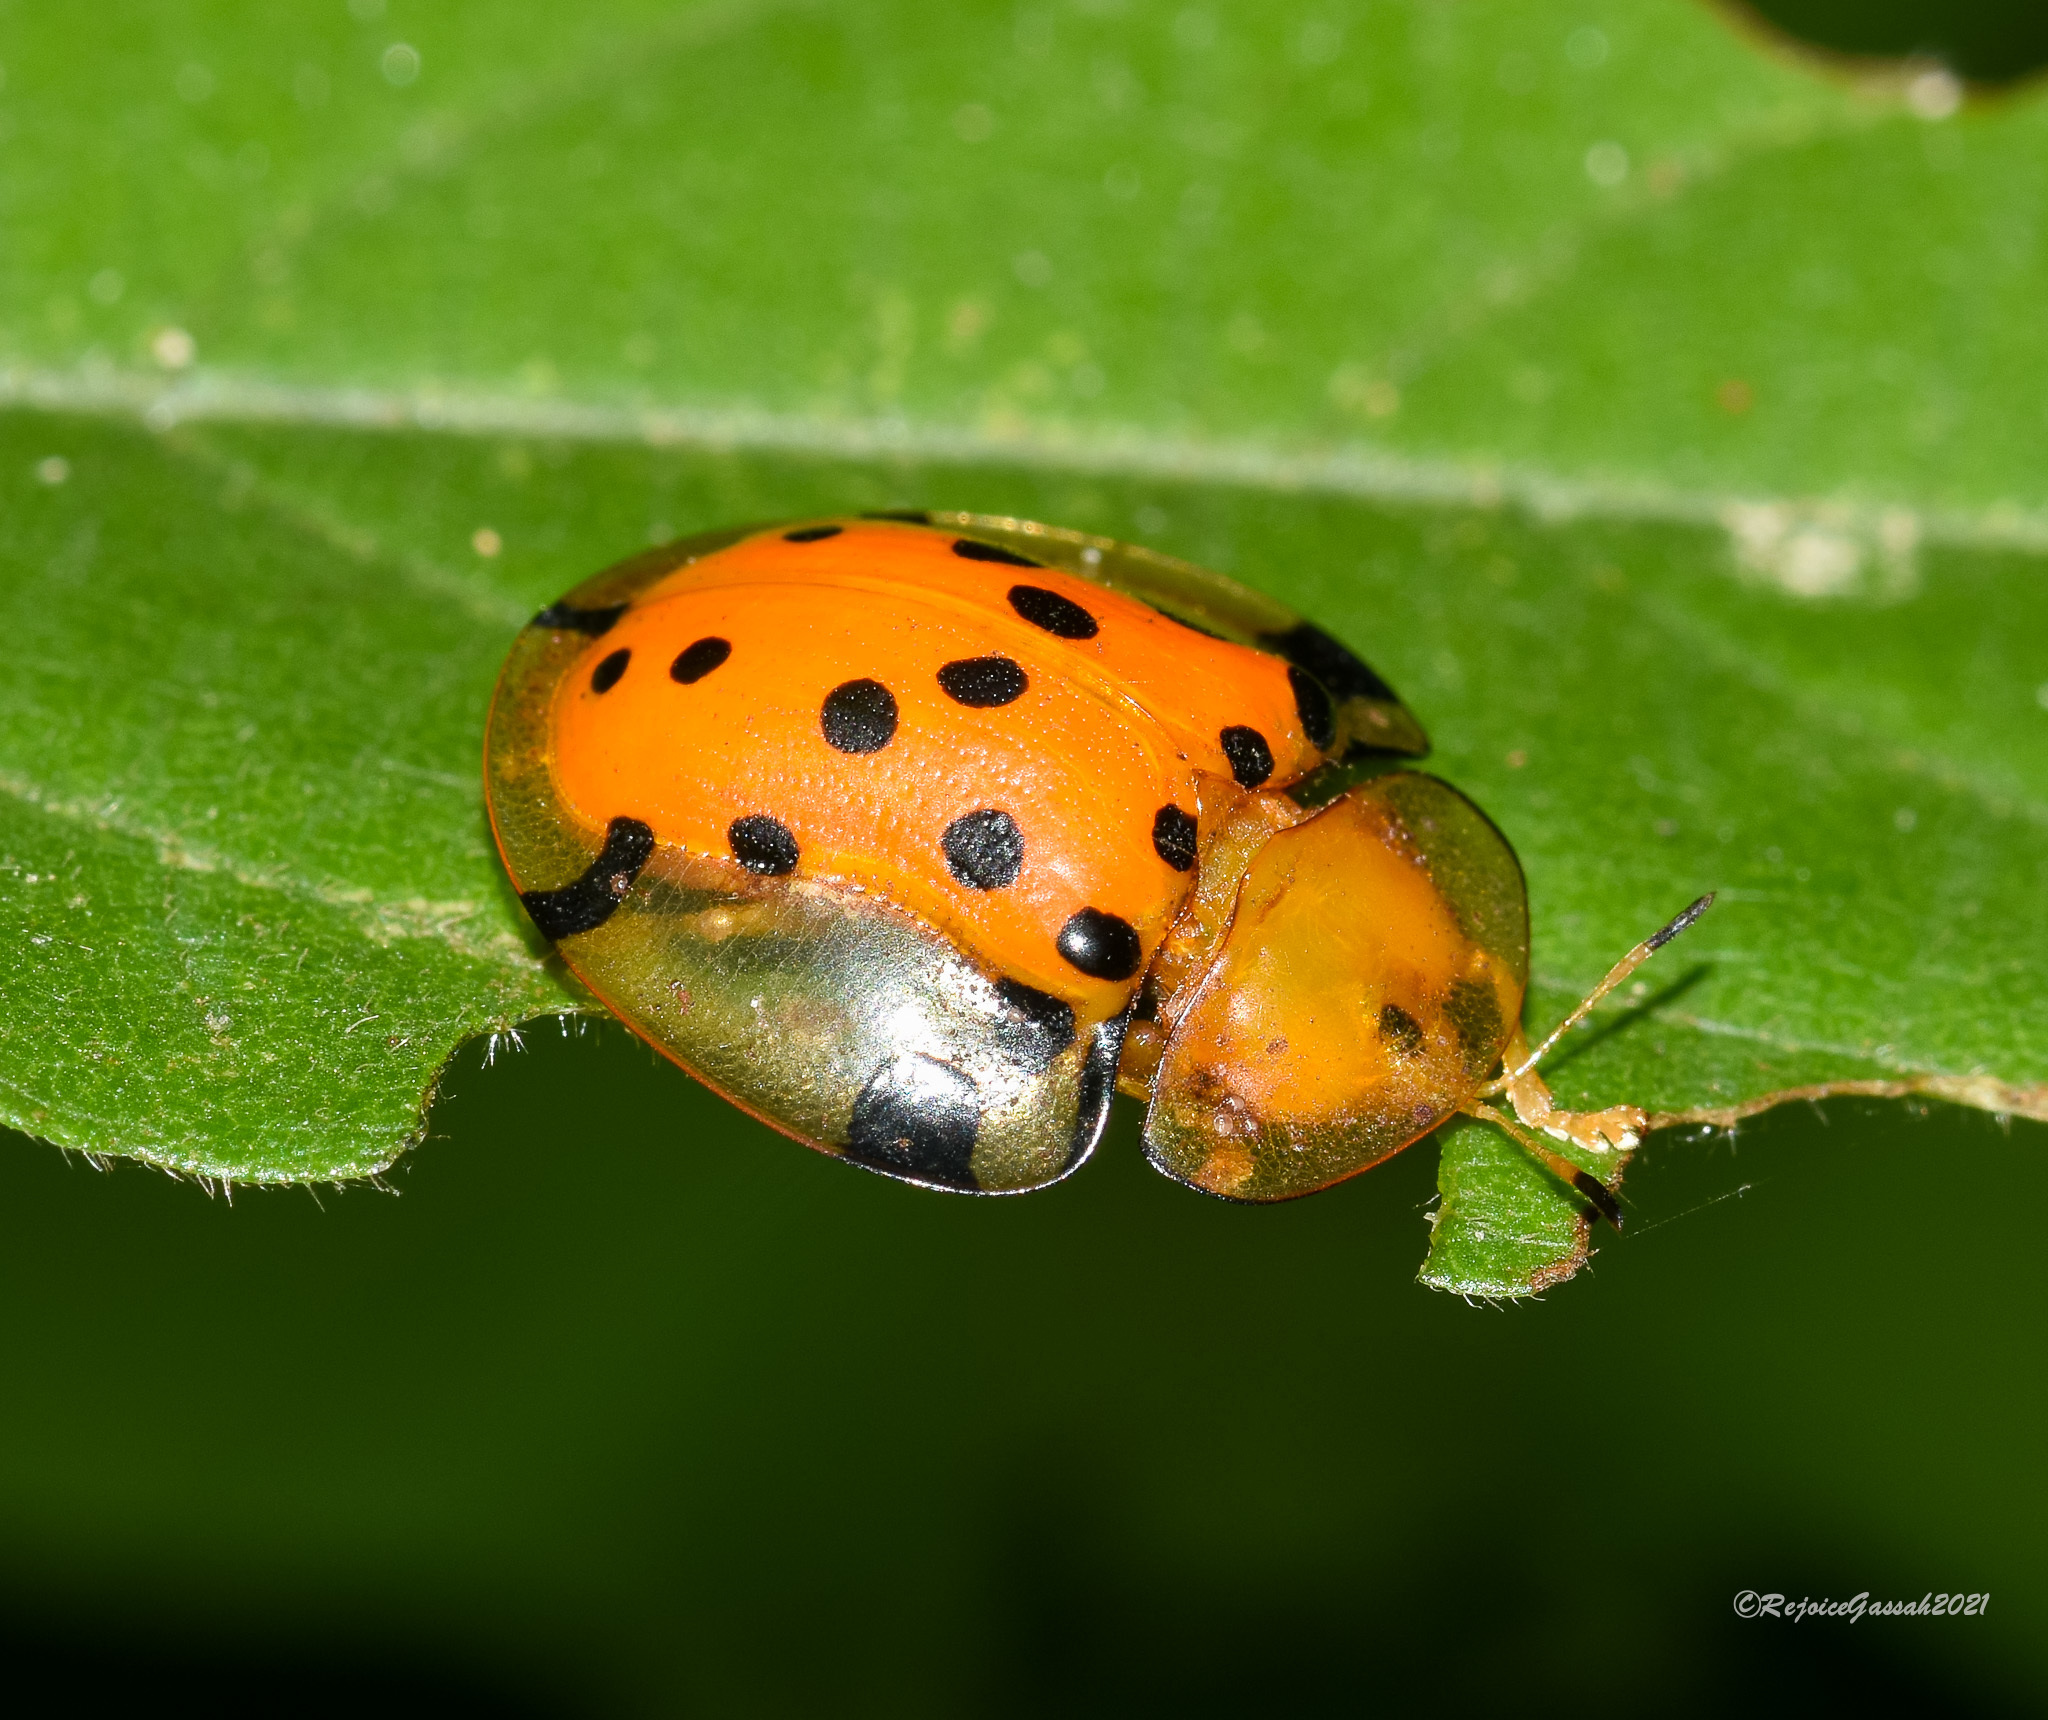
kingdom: Animalia
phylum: Arthropoda
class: Insecta
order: Coleoptera
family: Chrysomelidae
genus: Aspidimorpha
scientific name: Aspidimorpha miliaris
